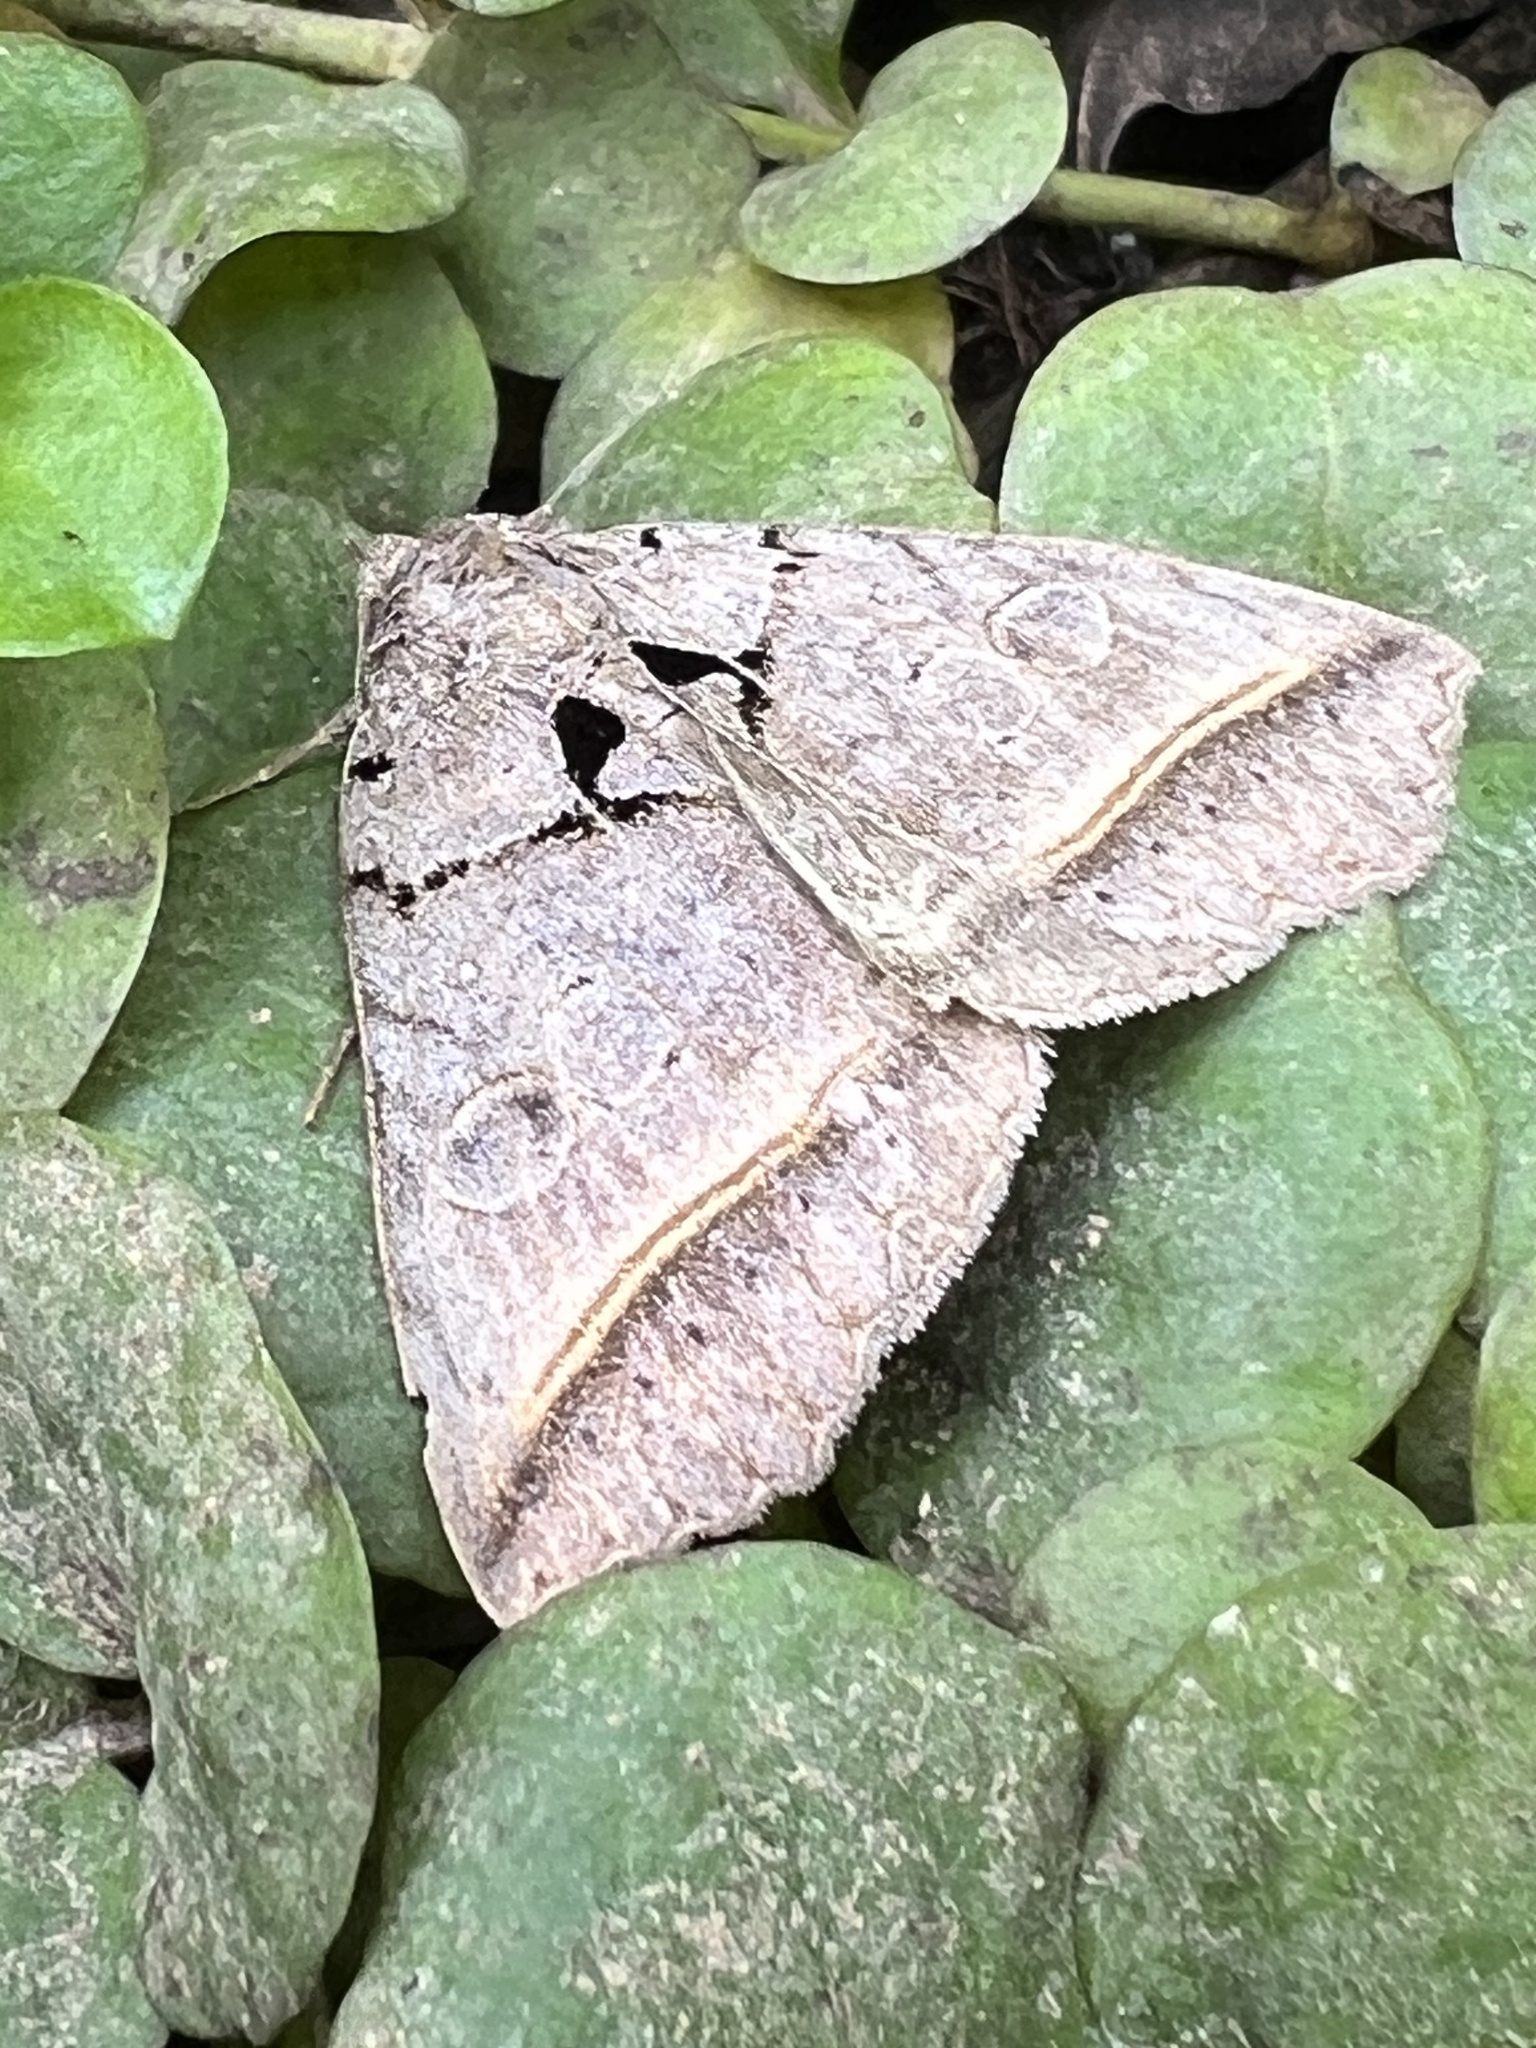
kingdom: Animalia
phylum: Arthropoda
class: Insecta
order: Lepidoptera
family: Erebidae
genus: Celiptera
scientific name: Celiptera frustulum
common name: Black bit moth
